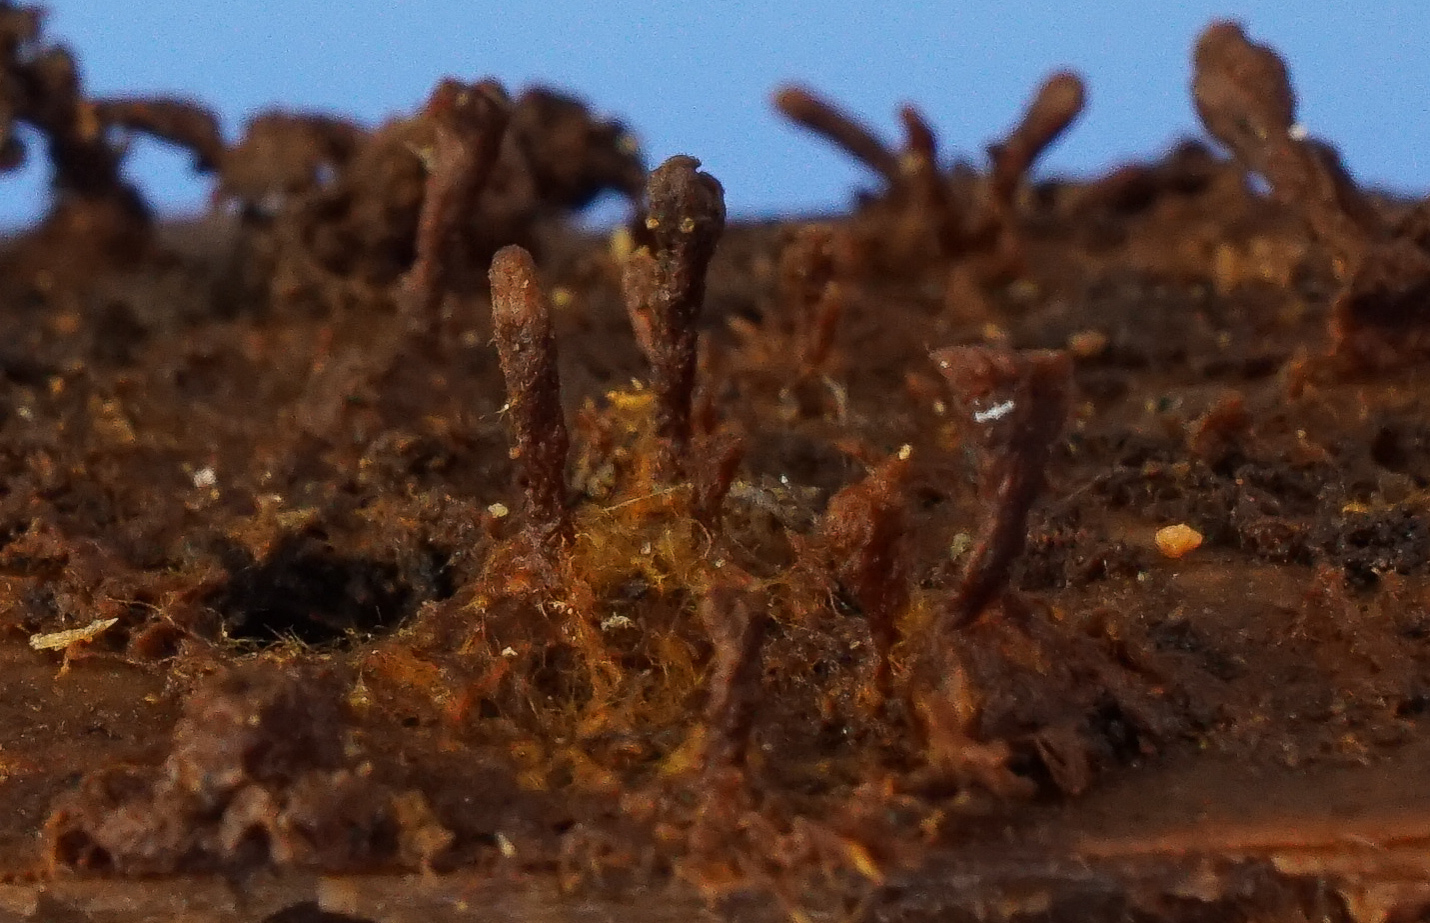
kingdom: Fungi
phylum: Basidiomycota
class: Agaricomycetes
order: Hymenochaetales
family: Hymenochaetaceae
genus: Coltriciella
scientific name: Coltriciella dependens
